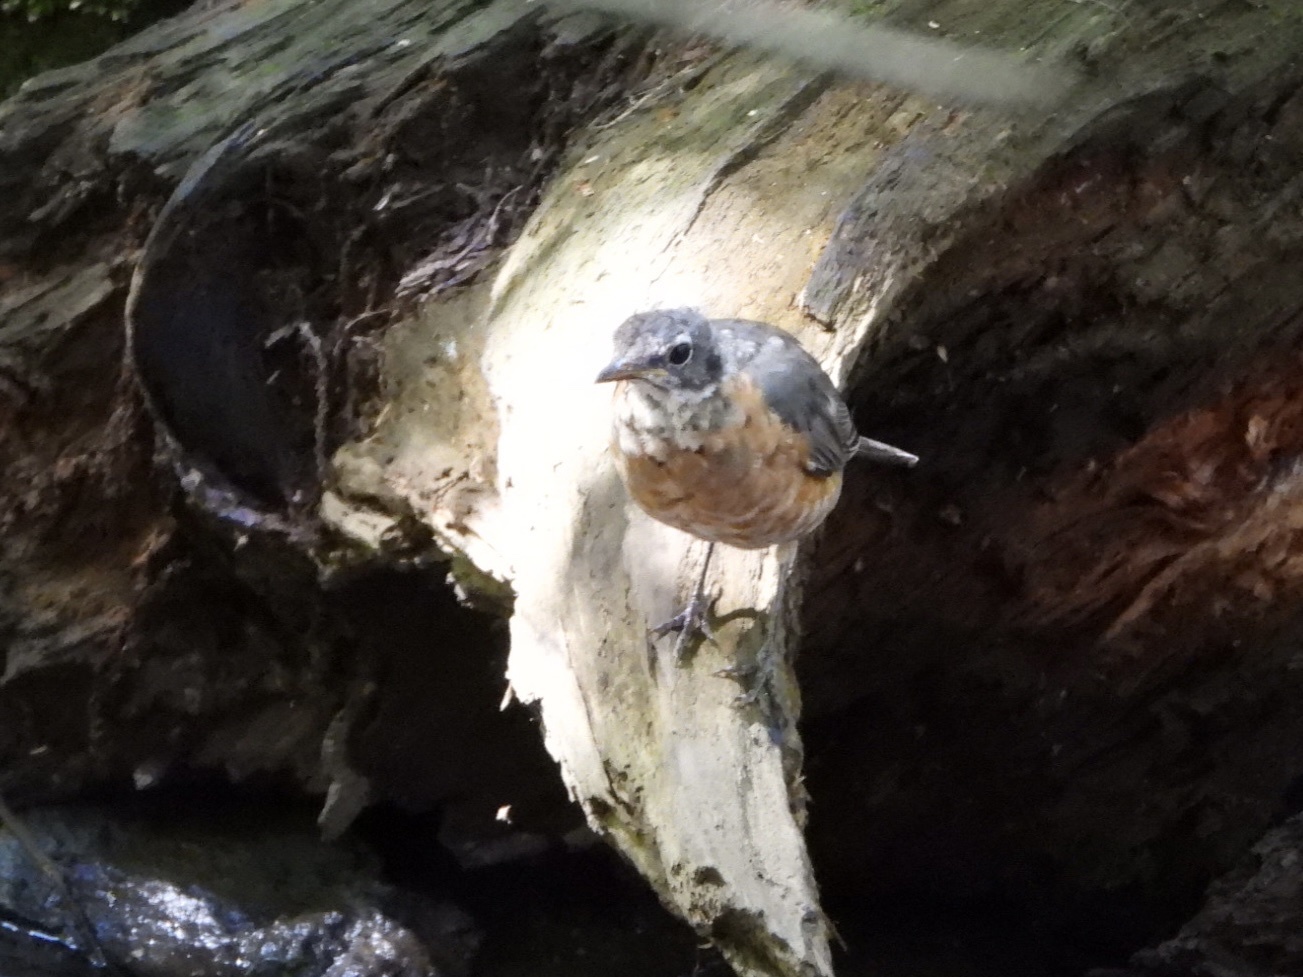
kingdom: Animalia
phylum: Chordata
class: Aves
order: Passeriformes
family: Turdidae
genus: Turdus
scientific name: Turdus migratorius
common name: American robin
